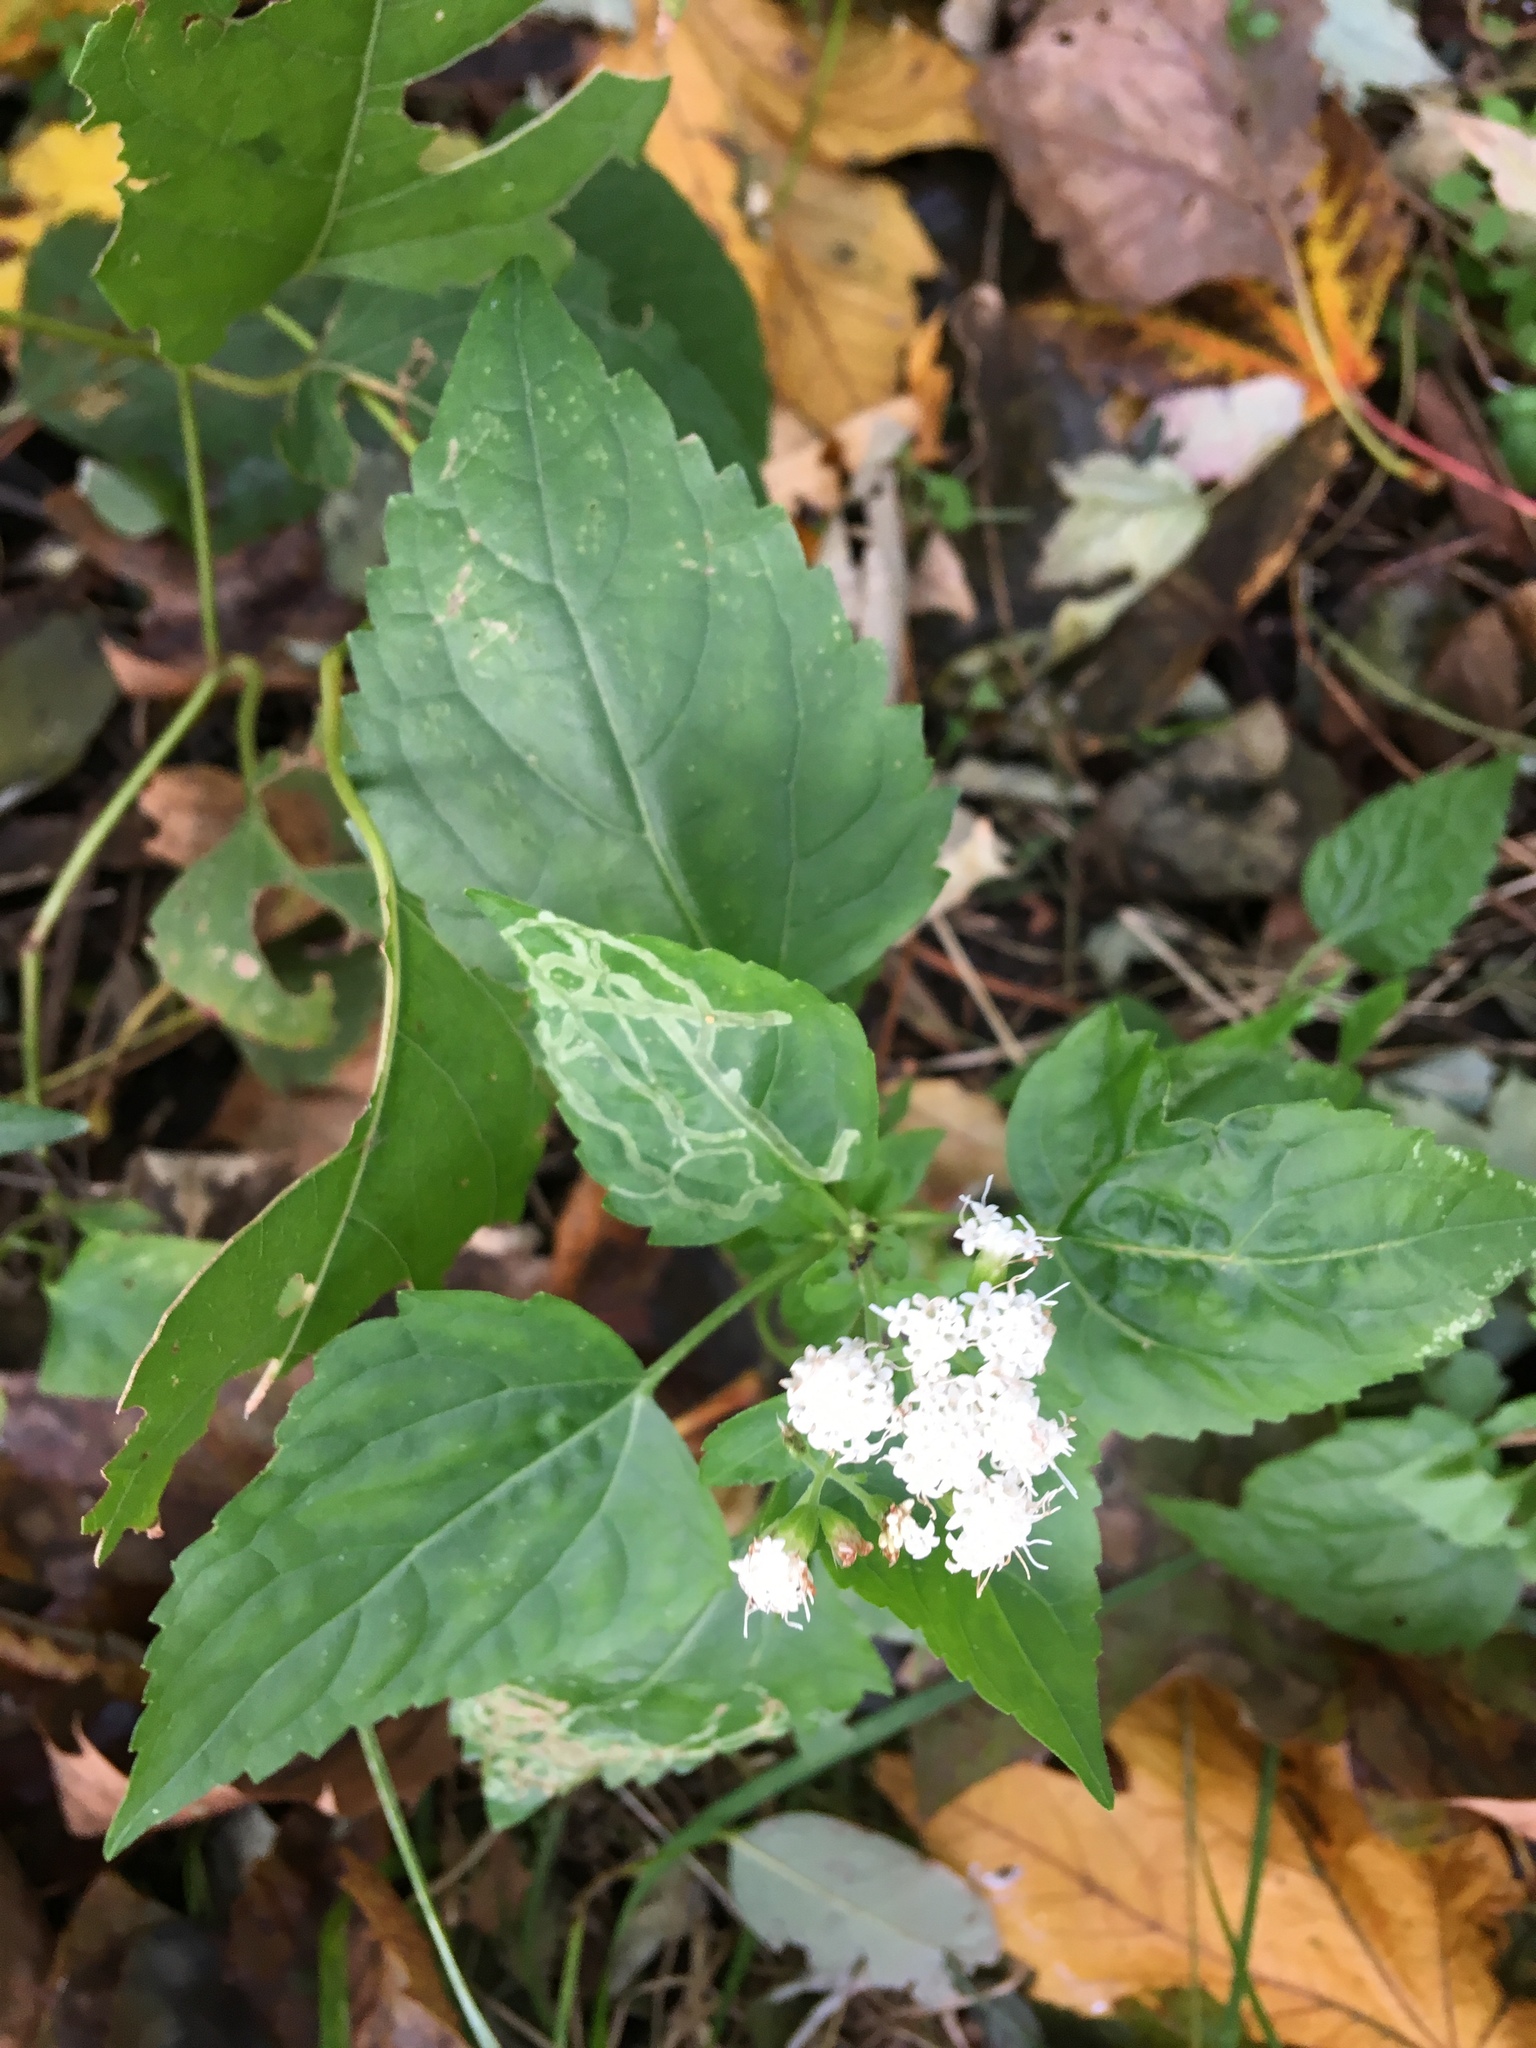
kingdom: Plantae
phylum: Tracheophyta
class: Magnoliopsida
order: Asterales
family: Asteraceae
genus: Ageratina
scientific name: Ageratina altissima
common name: White snakeroot
